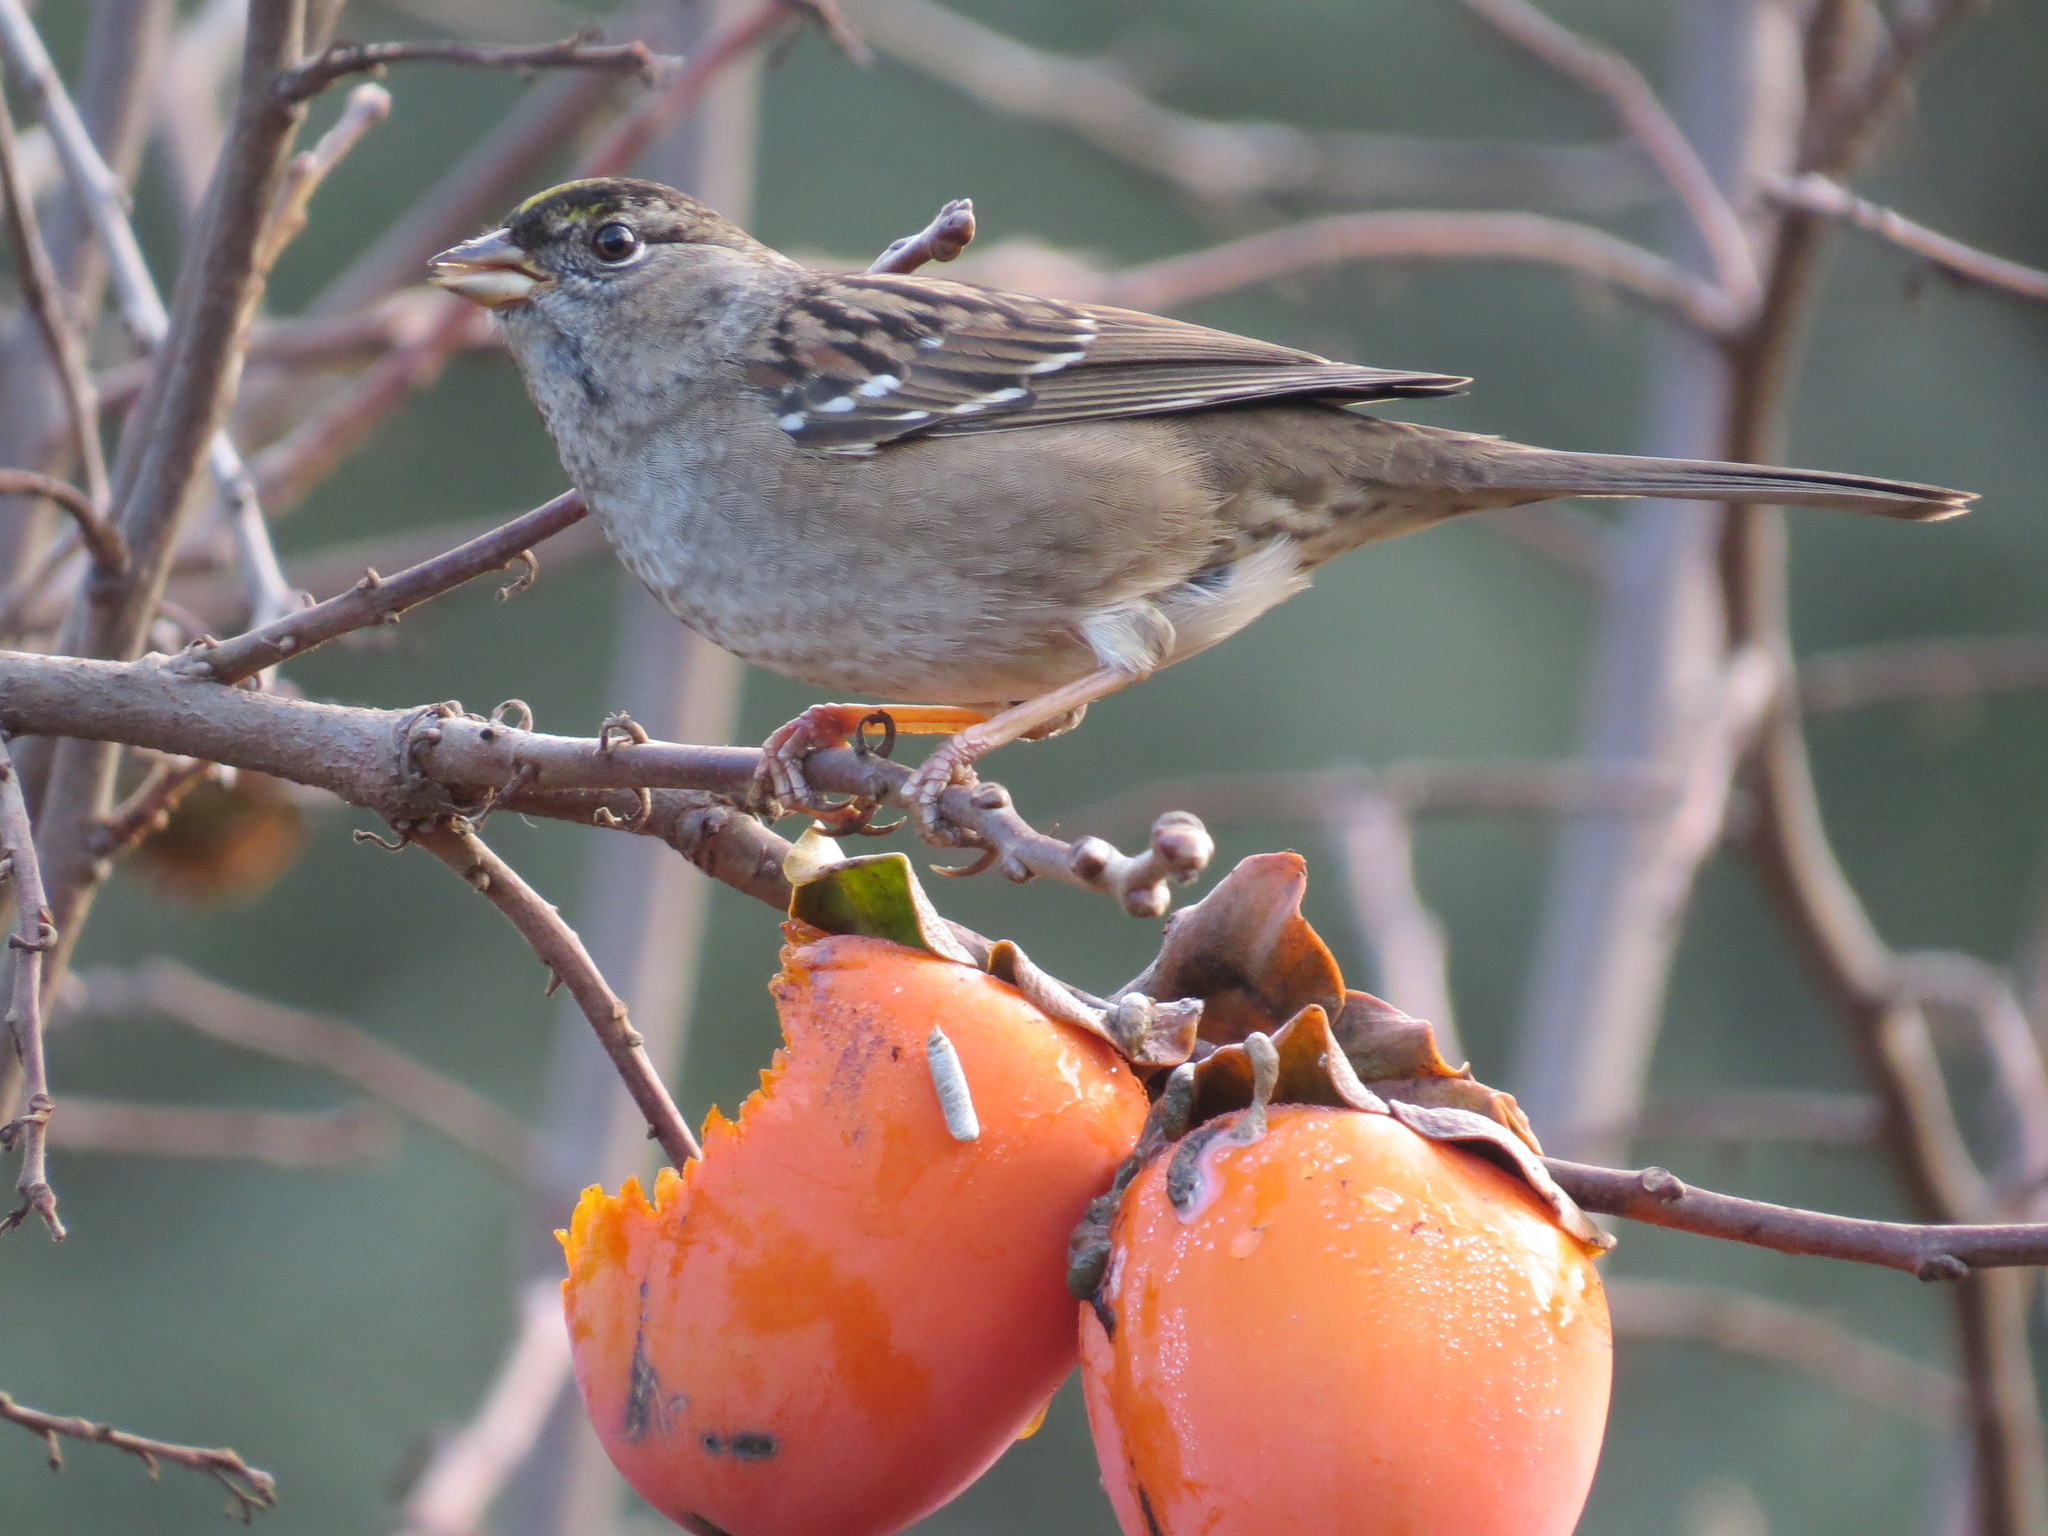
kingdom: Animalia
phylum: Chordata
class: Aves
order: Passeriformes
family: Passerellidae
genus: Zonotrichia
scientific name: Zonotrichia atricapilla
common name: Golden-crowned sparrow
